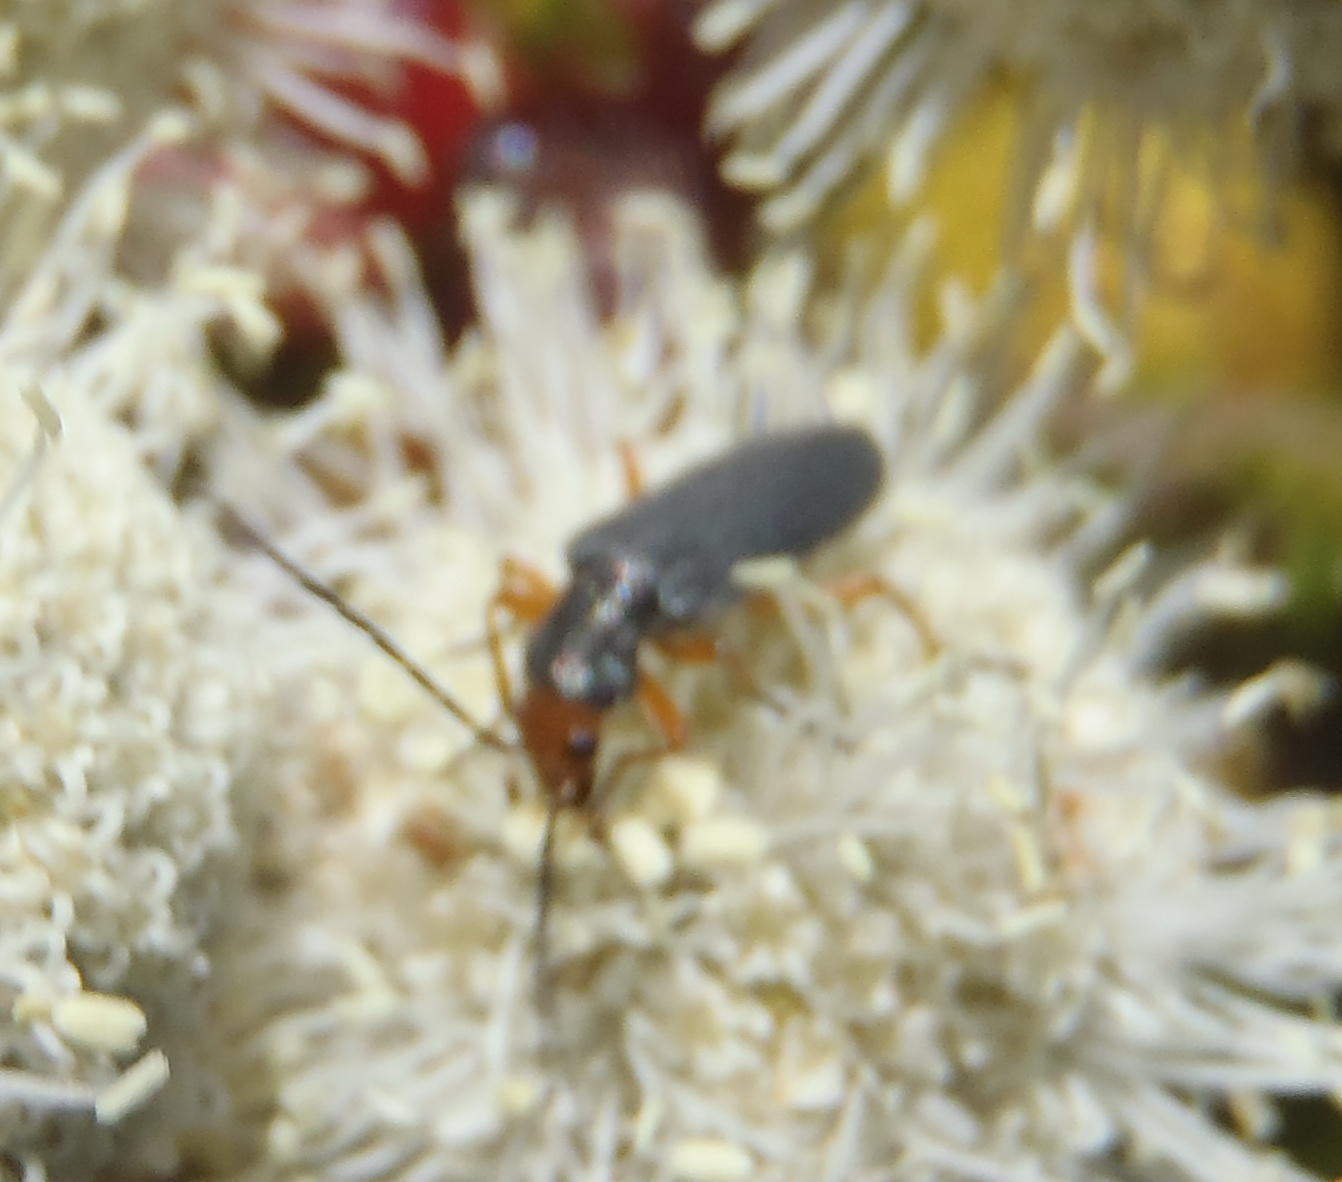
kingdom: Animalia
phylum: Arthropoda
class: Insecta
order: Coleoptera
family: Oedemeridae
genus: Melananthia
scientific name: Melananthia
